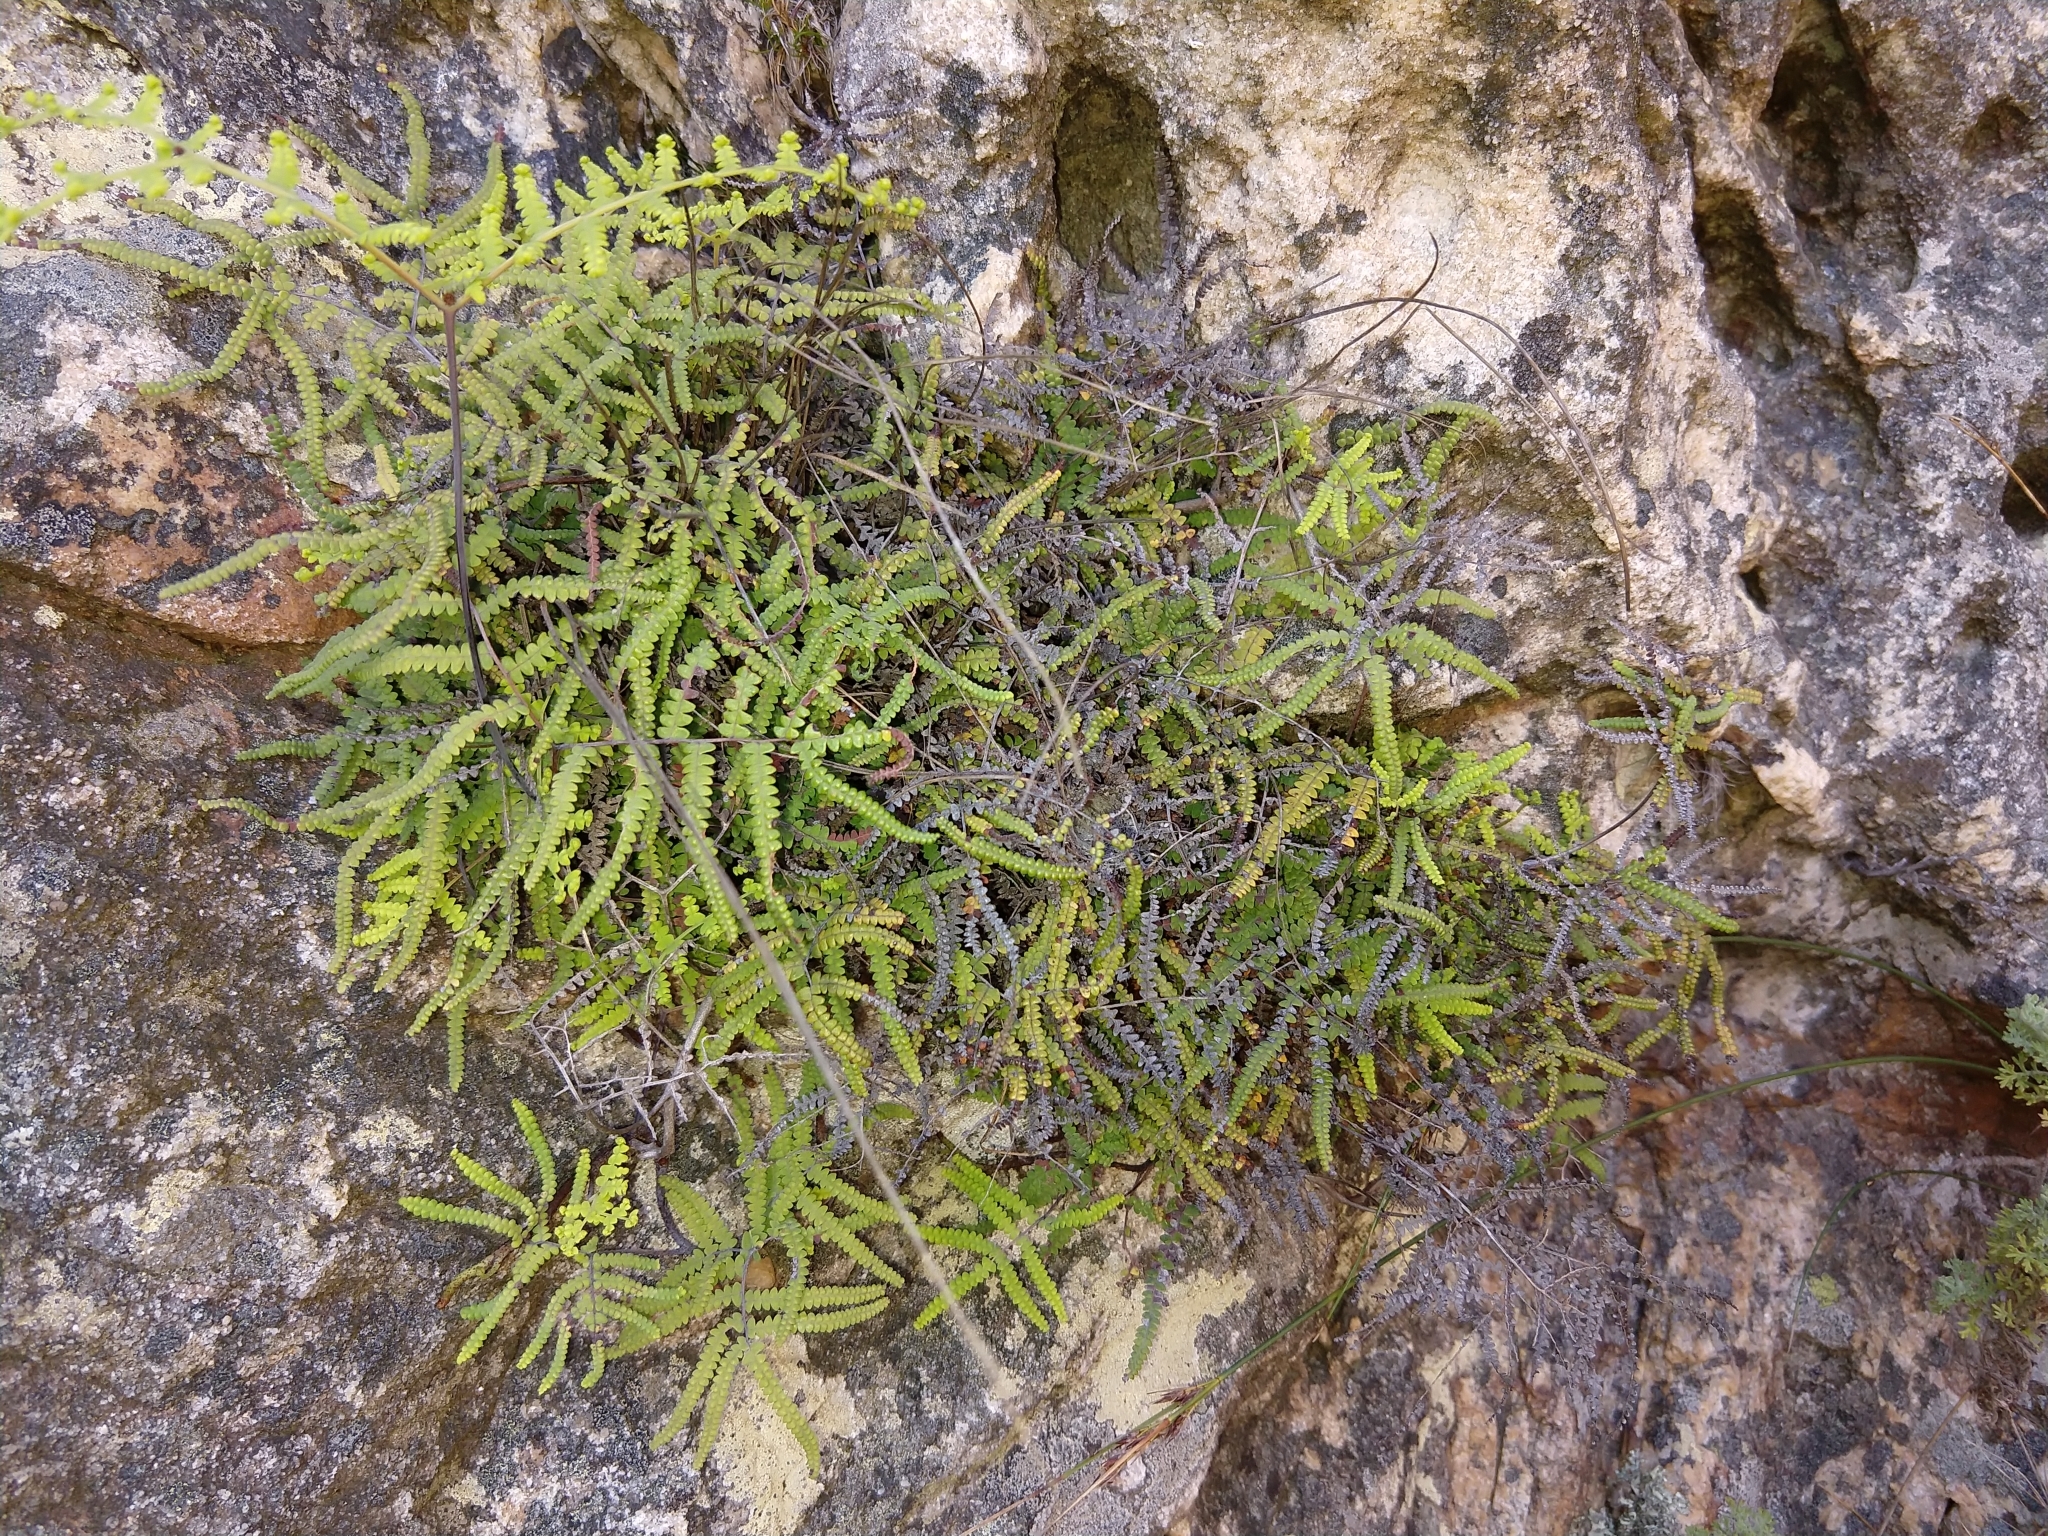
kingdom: Plantae
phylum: Tracheophyta
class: Polypodiopsida
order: Gleicheniales
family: Gleicheniaceae
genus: Gleichenia
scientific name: Gleichenia polypodioides
